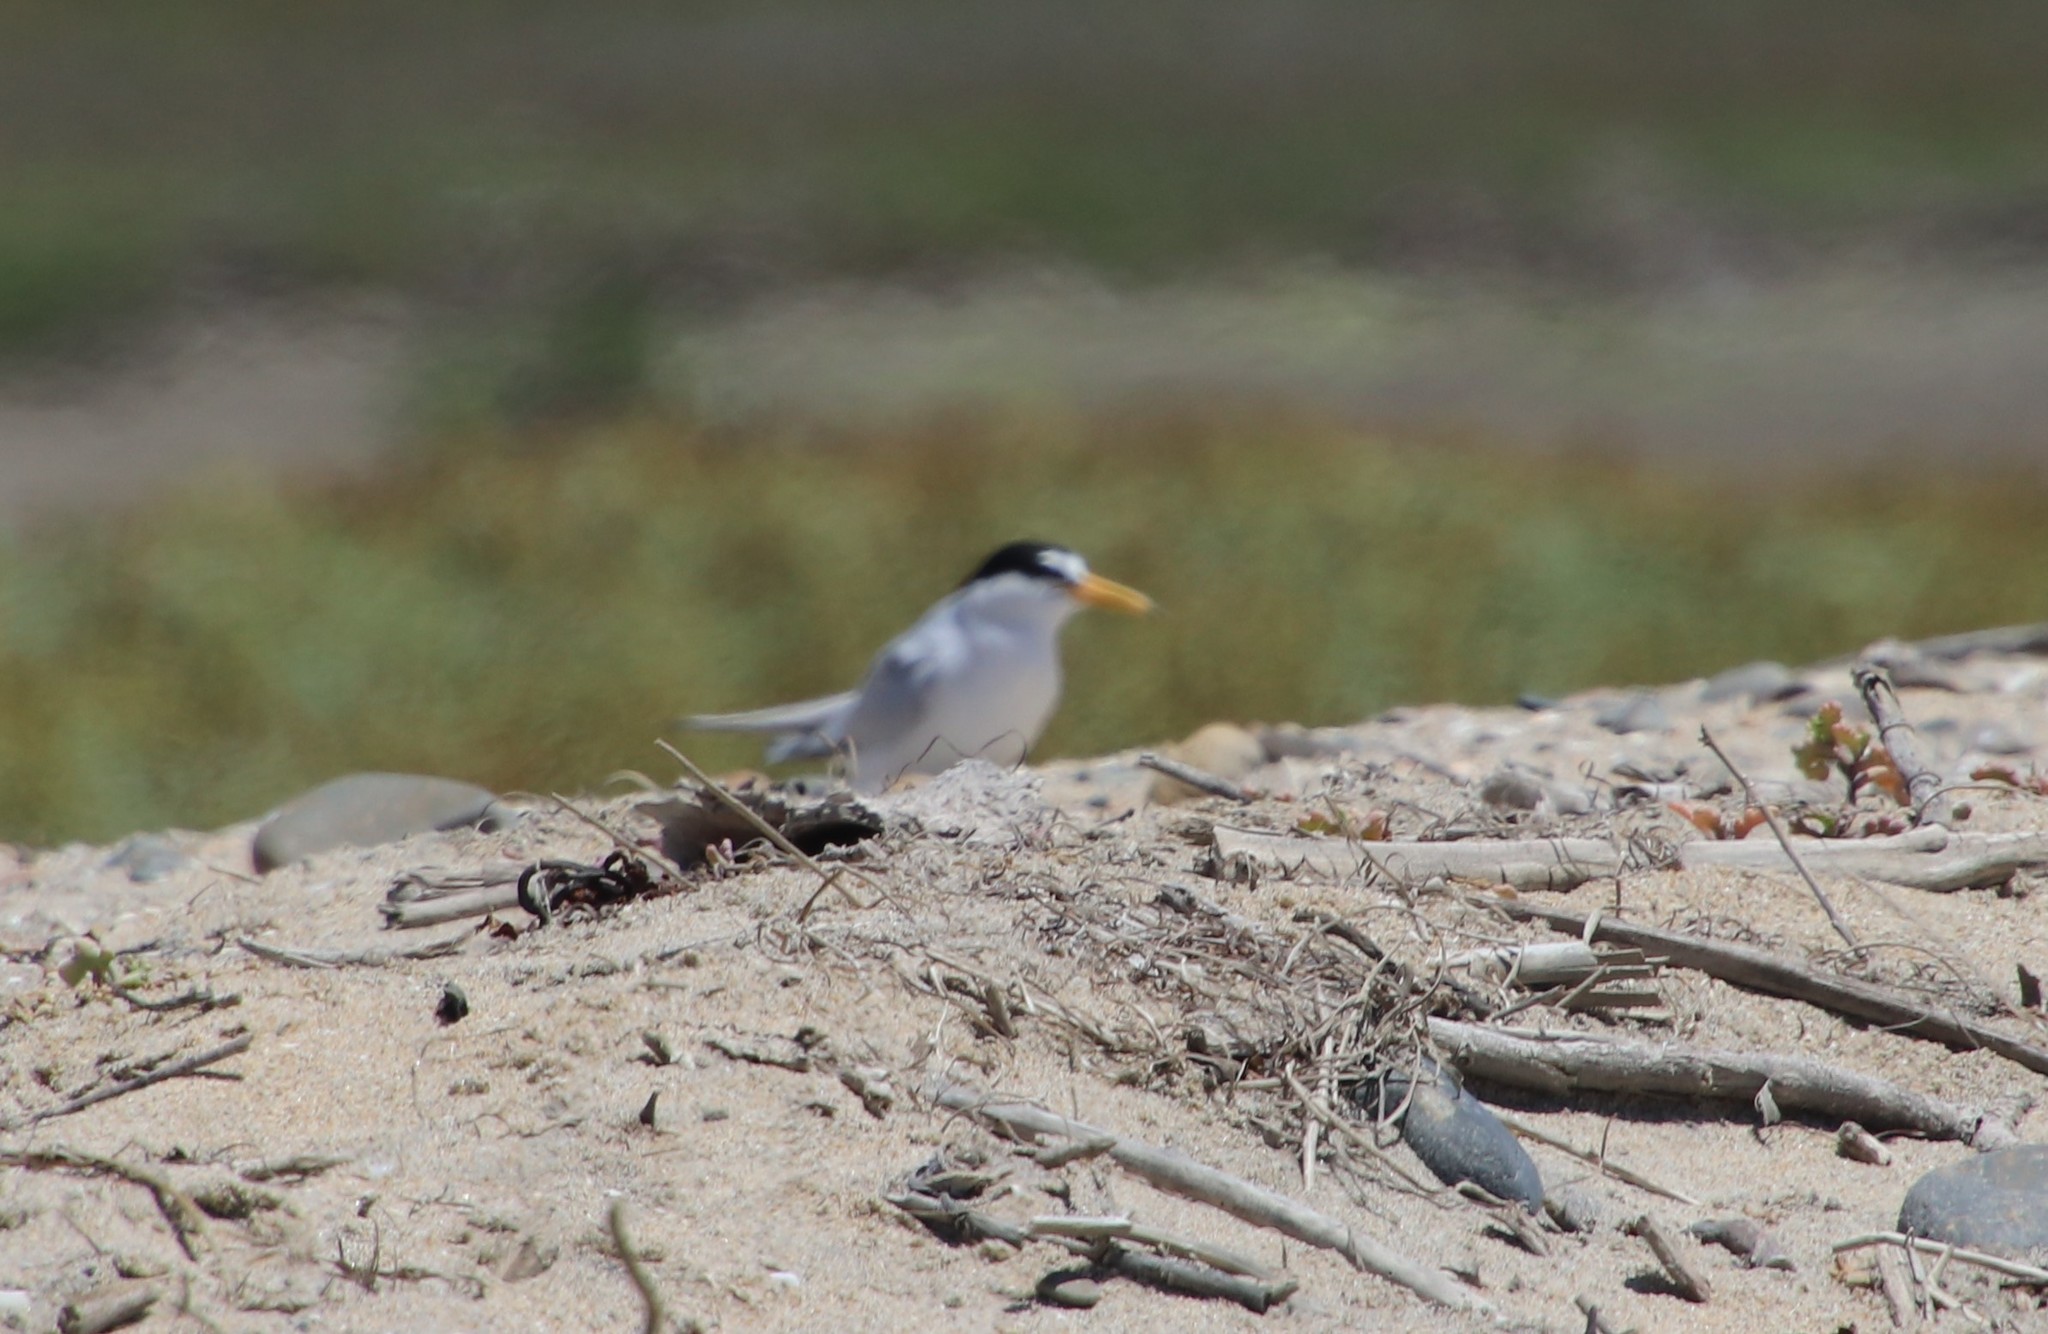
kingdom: Animalia
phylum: Chordata
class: Aves
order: Charadriiformes
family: Laridae
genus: Sternula
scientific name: Sternula antillarum
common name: Least tern
